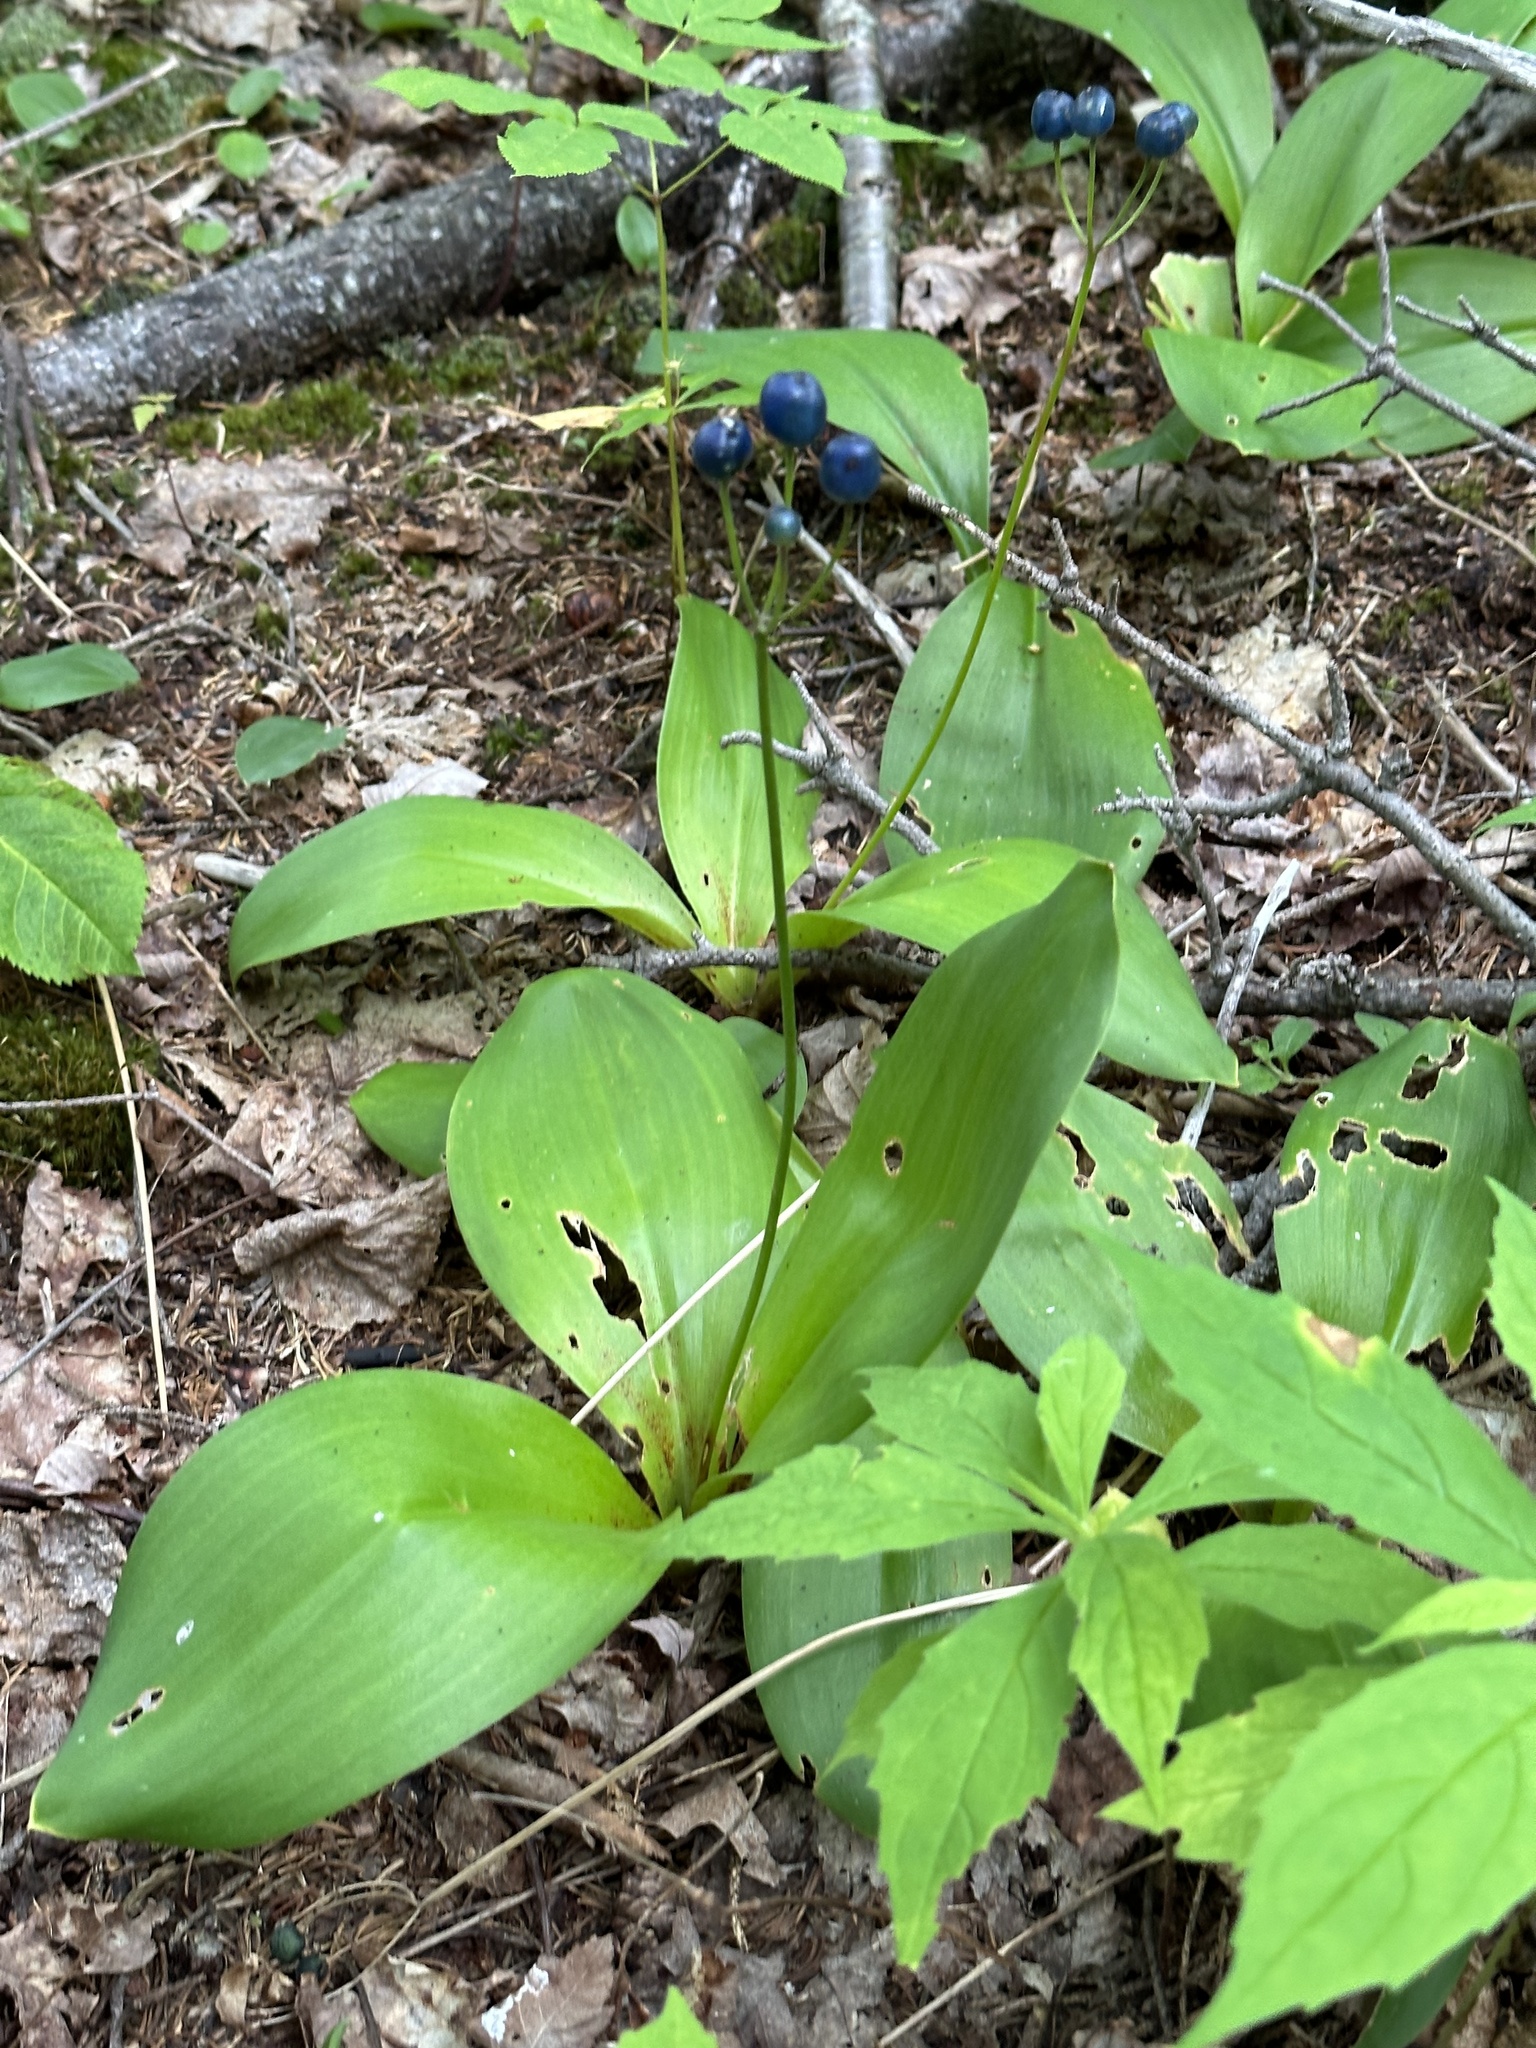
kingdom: Plantae
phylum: Tracheophyta
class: Liliopsida
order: Liliales
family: Liliaceae
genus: Clintonia
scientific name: Clintonia borealis
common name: Yellow clintonia
